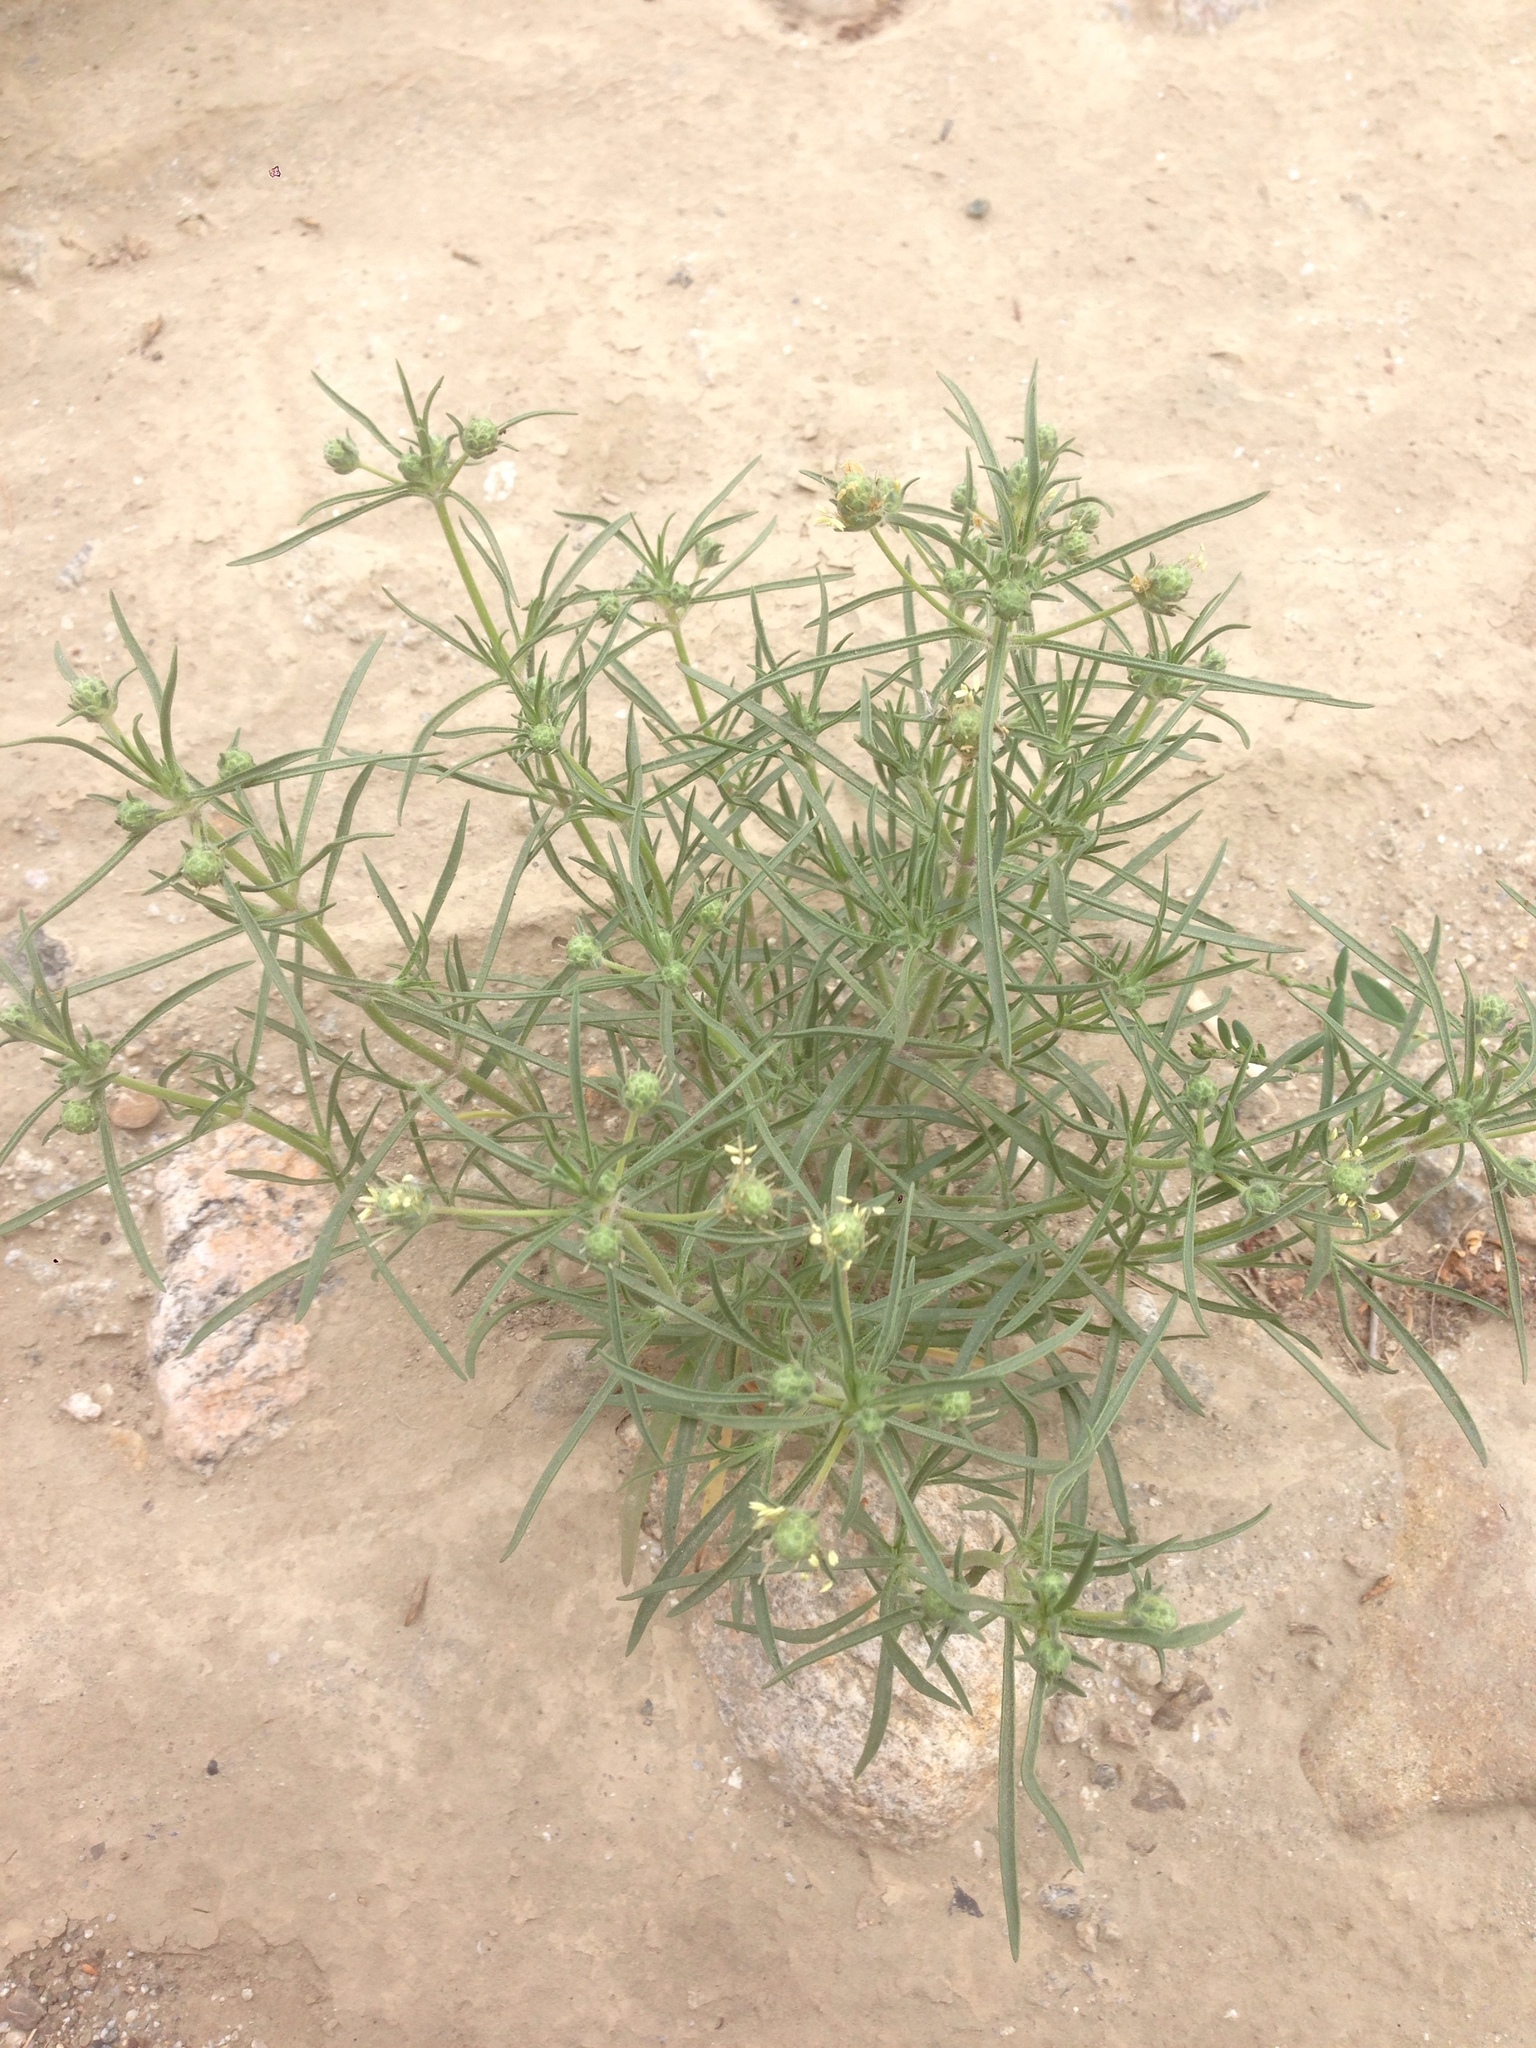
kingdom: Plantae
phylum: Tracheophyta
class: Magnoliopsida
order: Lamiales
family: Plantaginaceae
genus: Plantago
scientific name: Plantago arenaria
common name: Branched plantain
